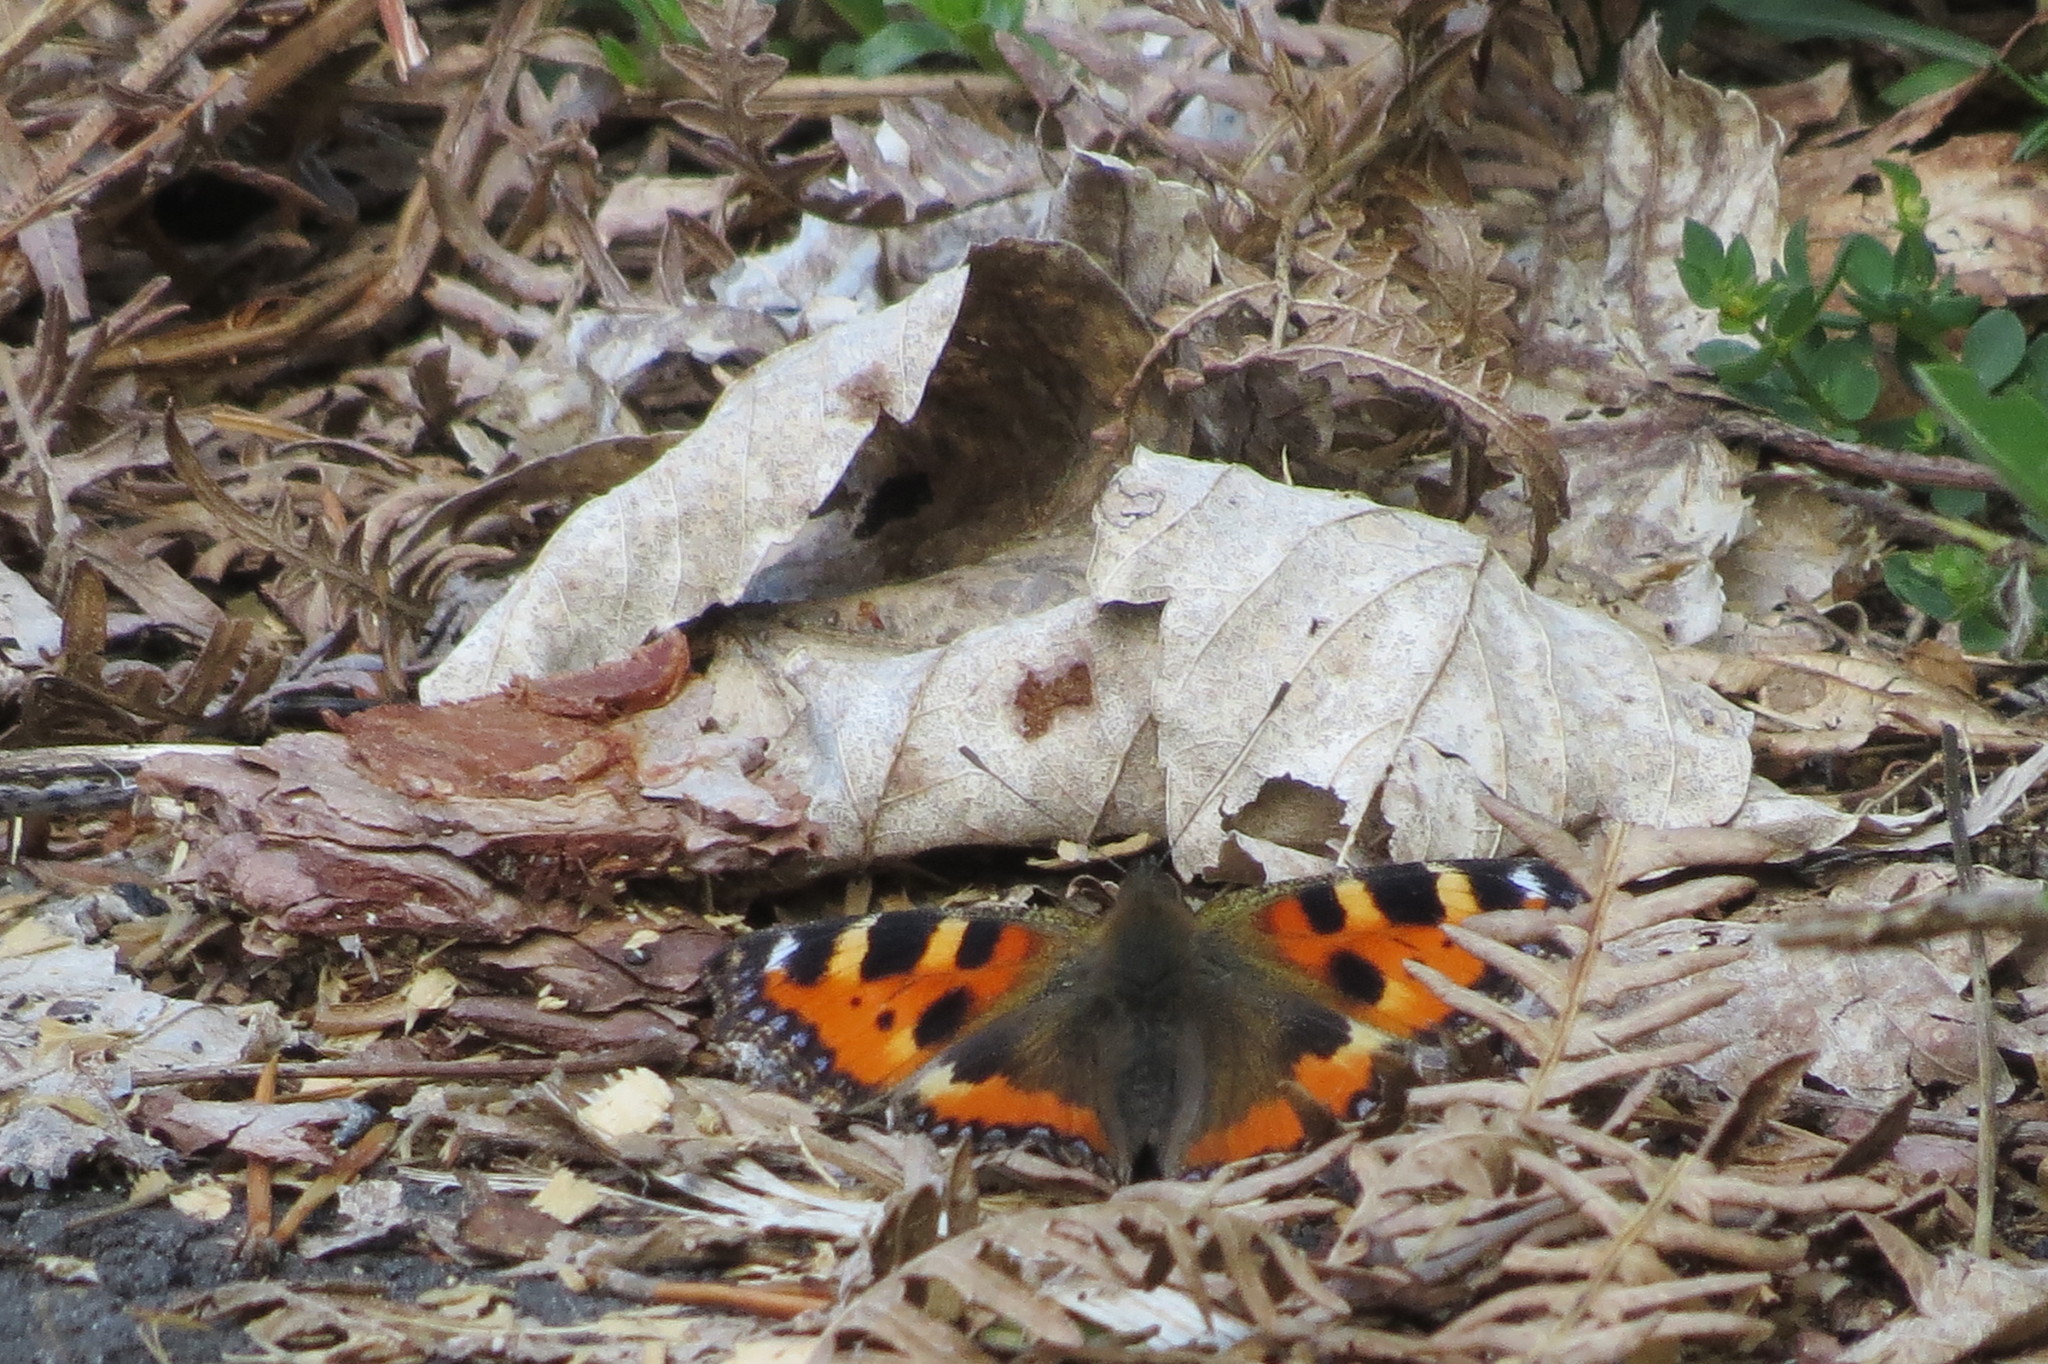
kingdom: Animalia
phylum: Arthropoda
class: Insecta
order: Lepidoptera
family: Nymphalidae
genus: Aglais
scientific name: Aglais urticae
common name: Small tortoiseshell
